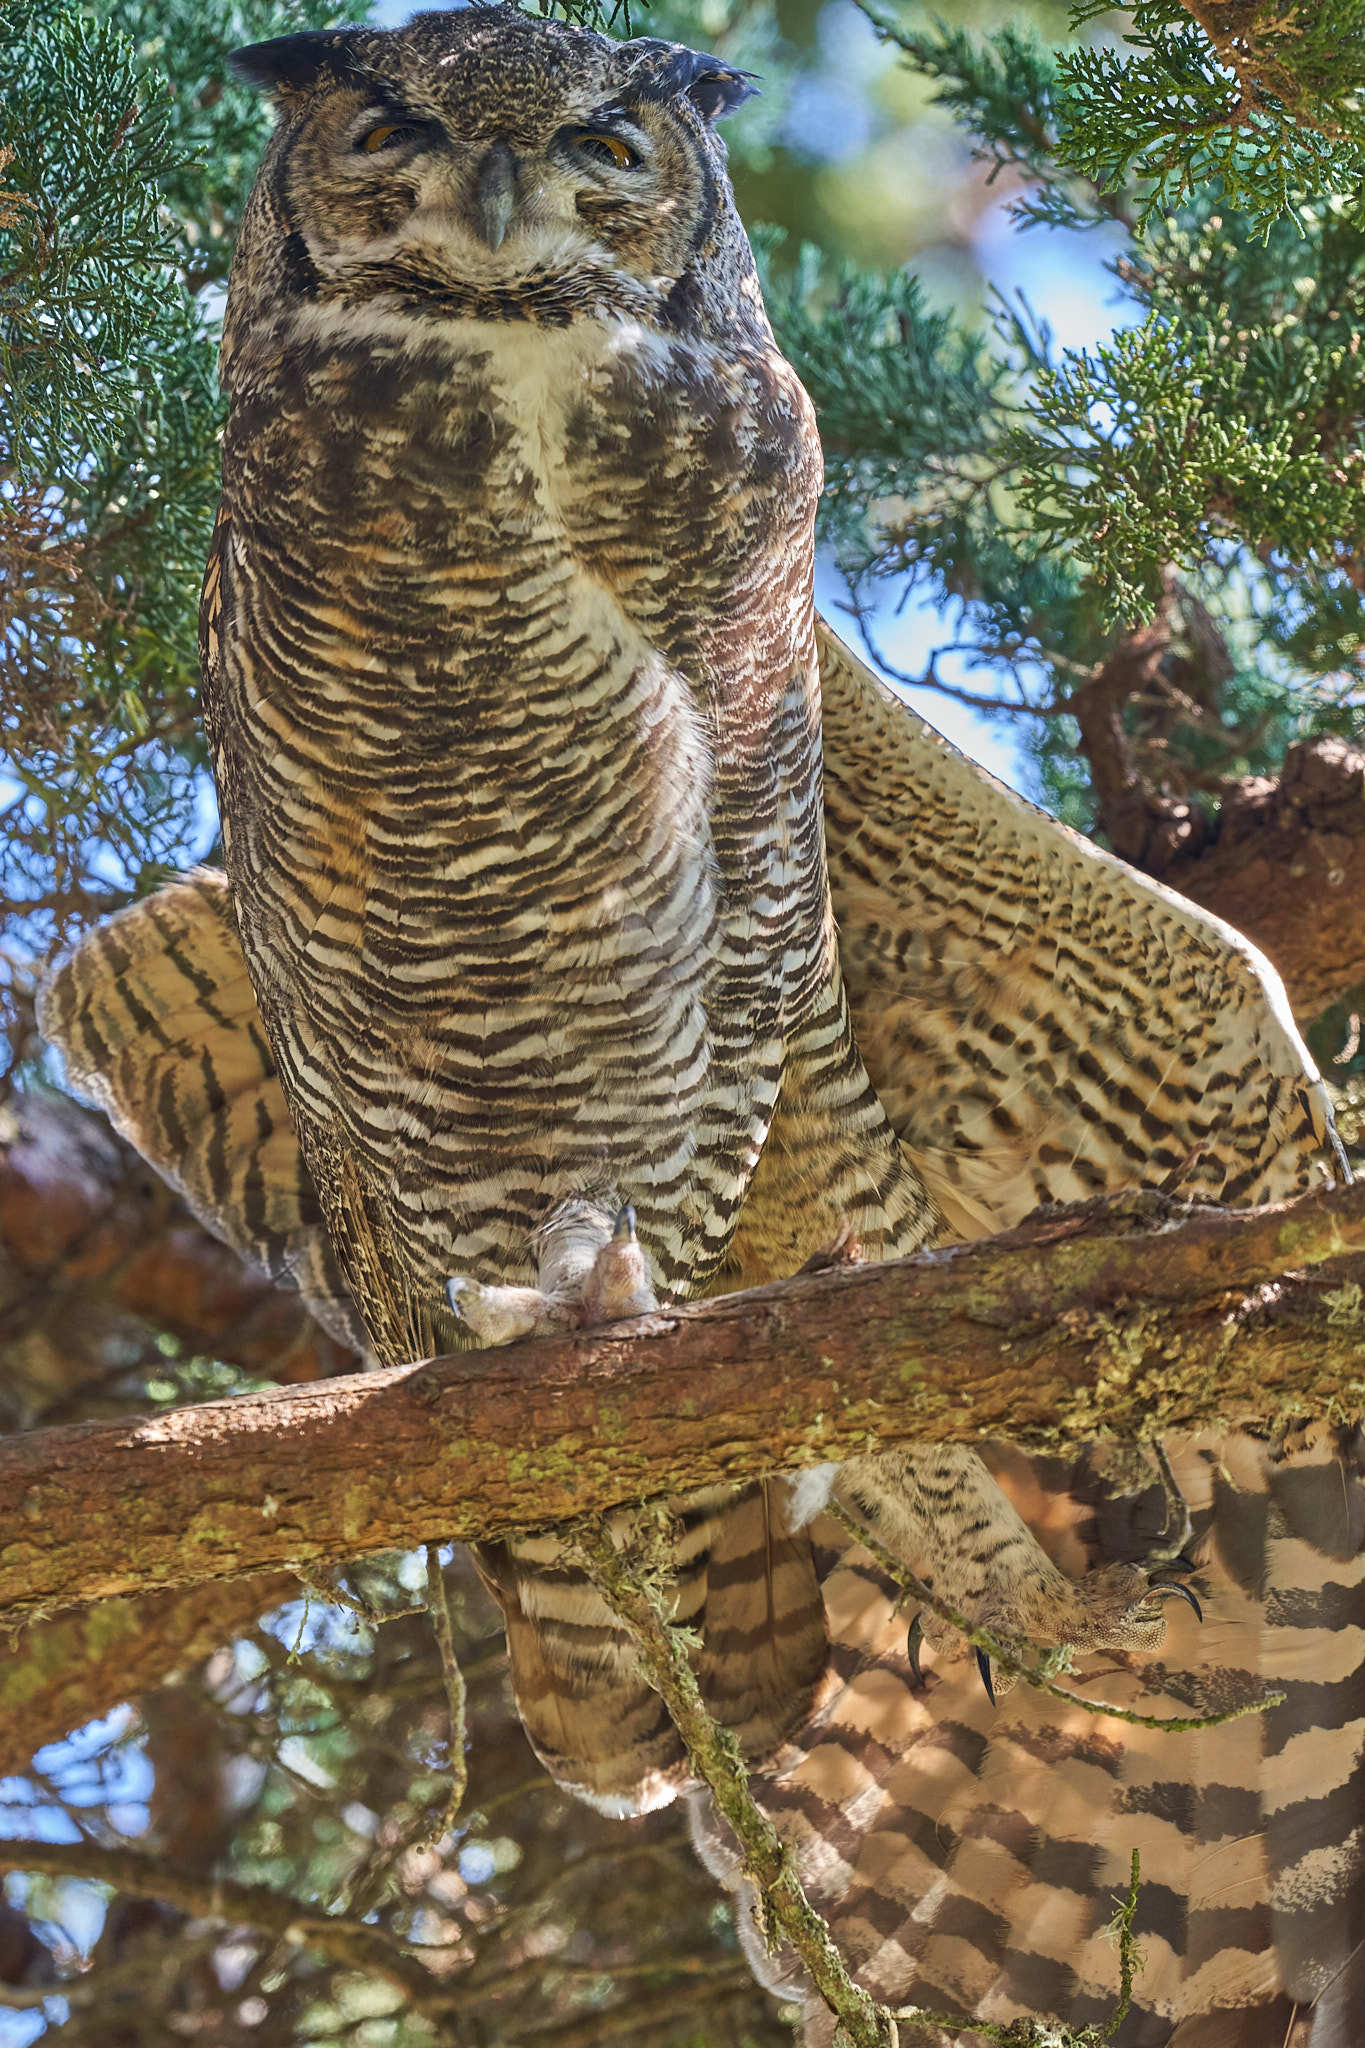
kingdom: Animalia
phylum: Chordata
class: Aves
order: Strigiformes
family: Strigidae
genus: Bubo
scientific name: Bubo virginianus
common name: Great horned owl
